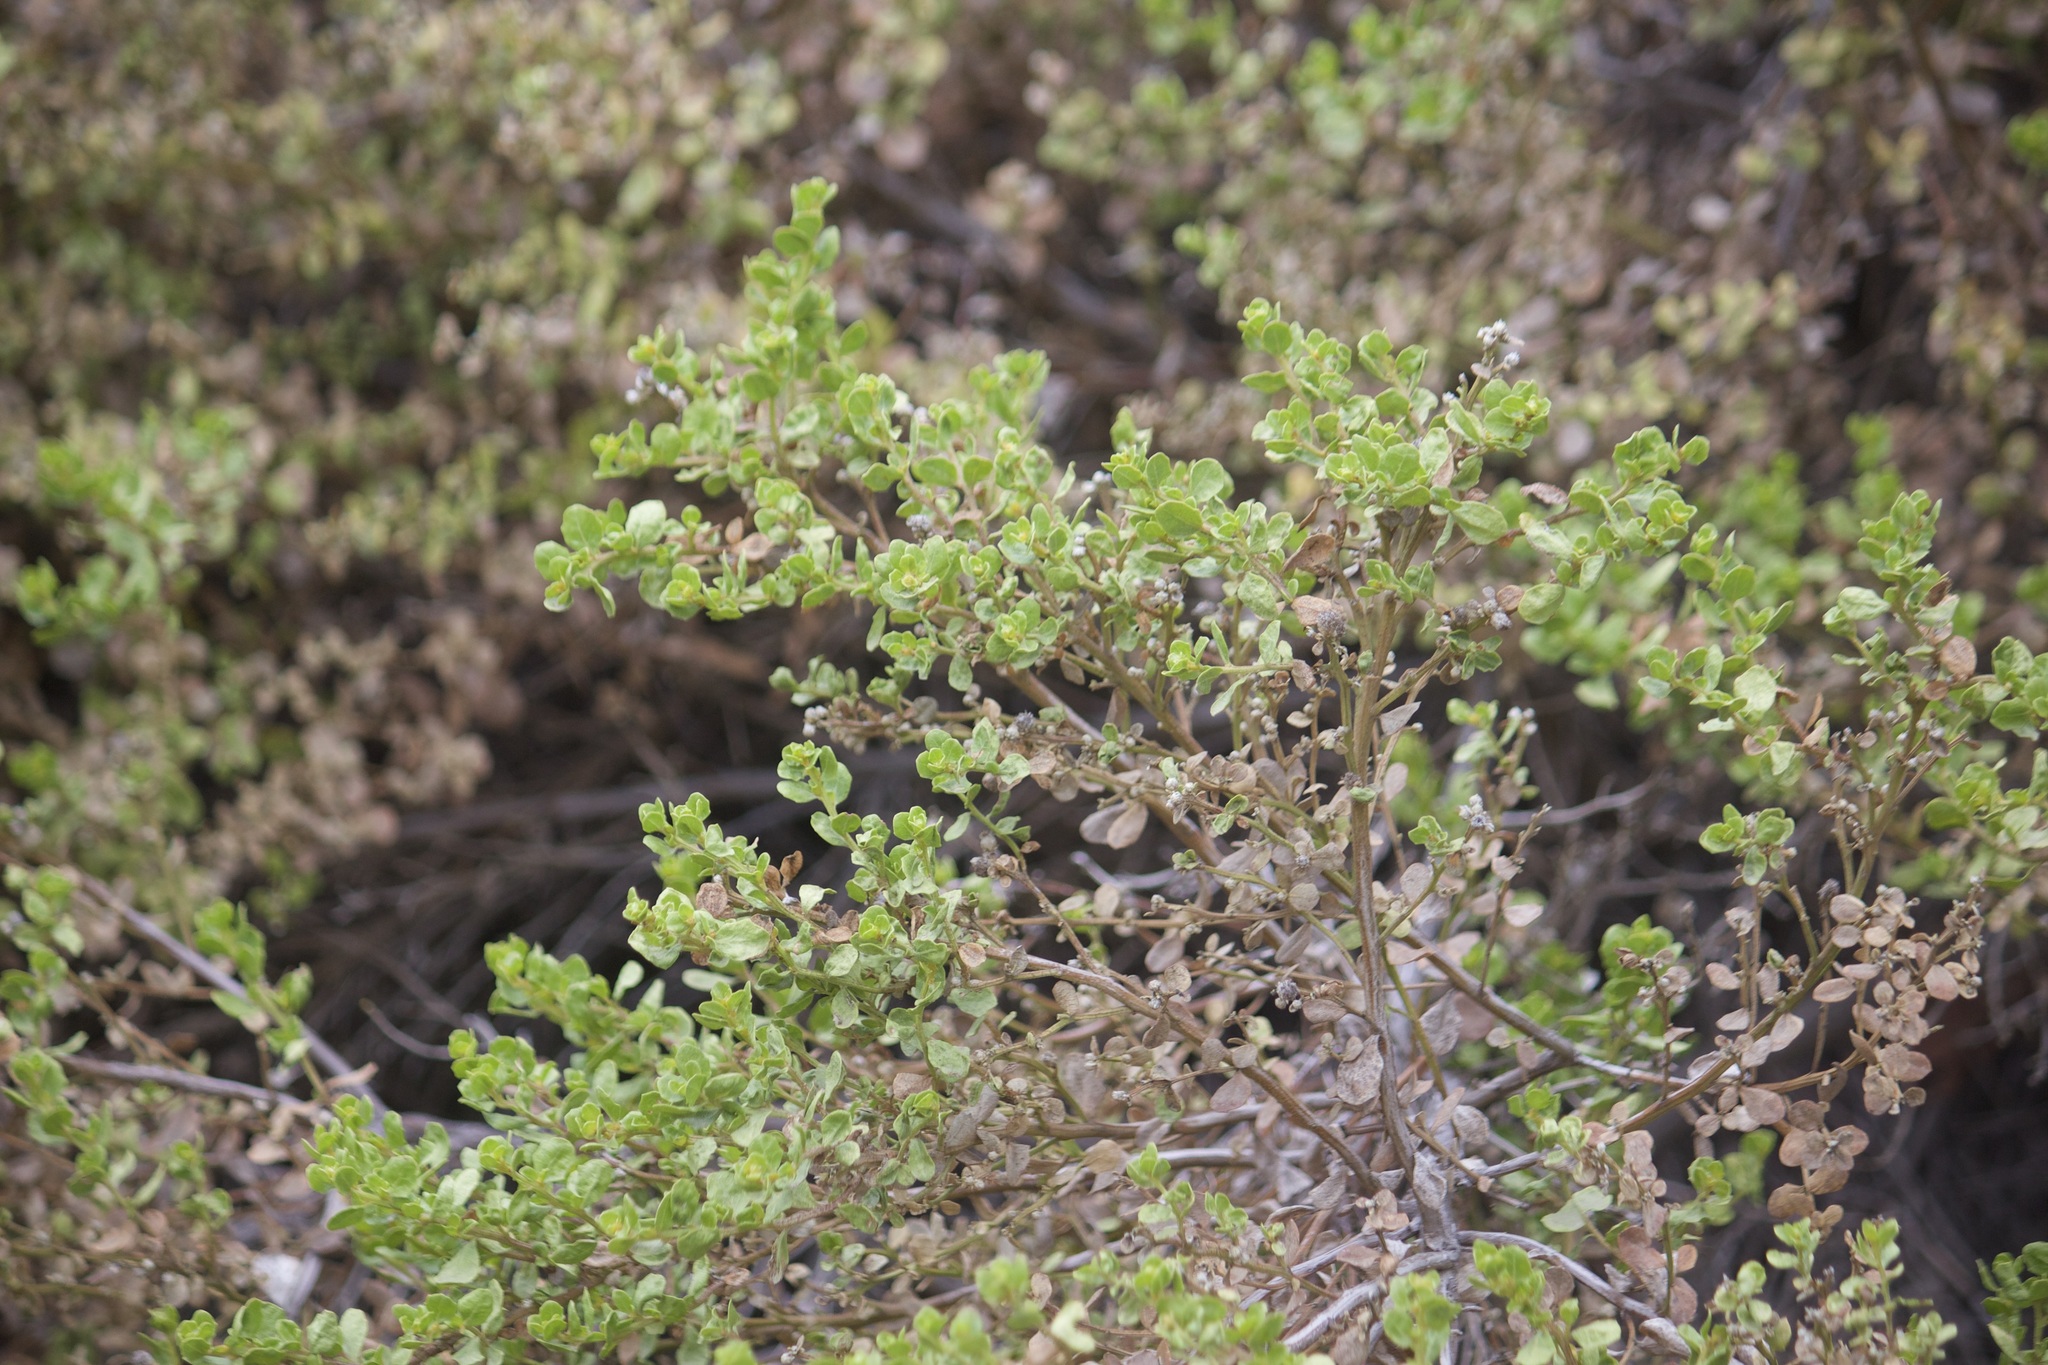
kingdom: Plantae
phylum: Tracheophyta
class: Magnoliopsida
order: Asterales
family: Asteraceae
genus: Baccharis
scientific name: Baccharis pilularis
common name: Coyotebrush
